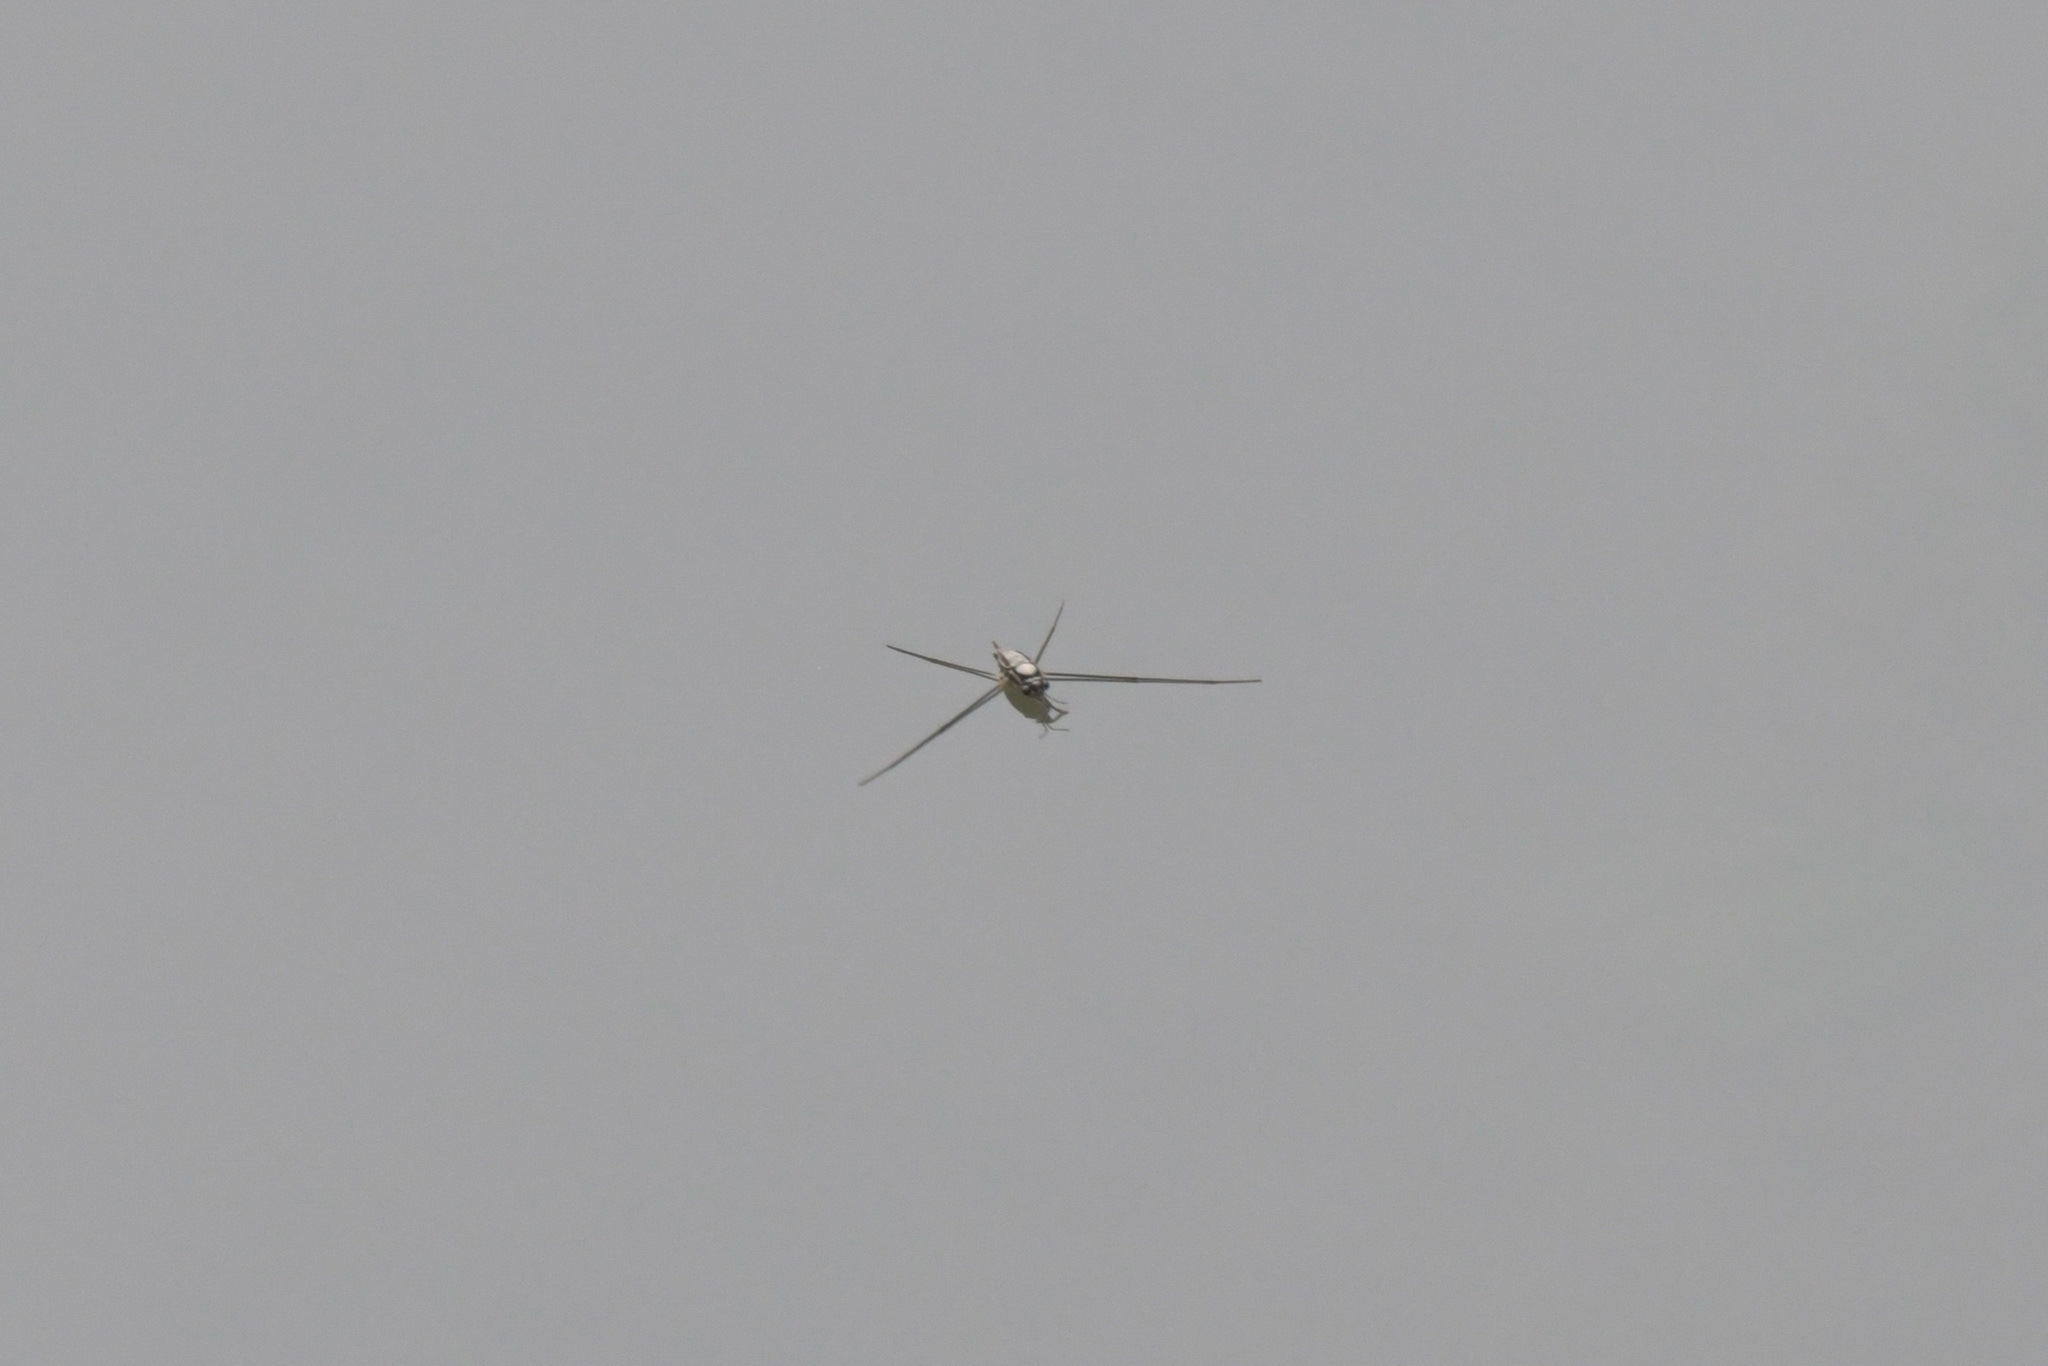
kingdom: Animalia
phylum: Arthropoda
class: Insecta
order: Hemiptera
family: Gerridae
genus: Rhagadotarsus
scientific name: Rhagadotarsus kraepelini
